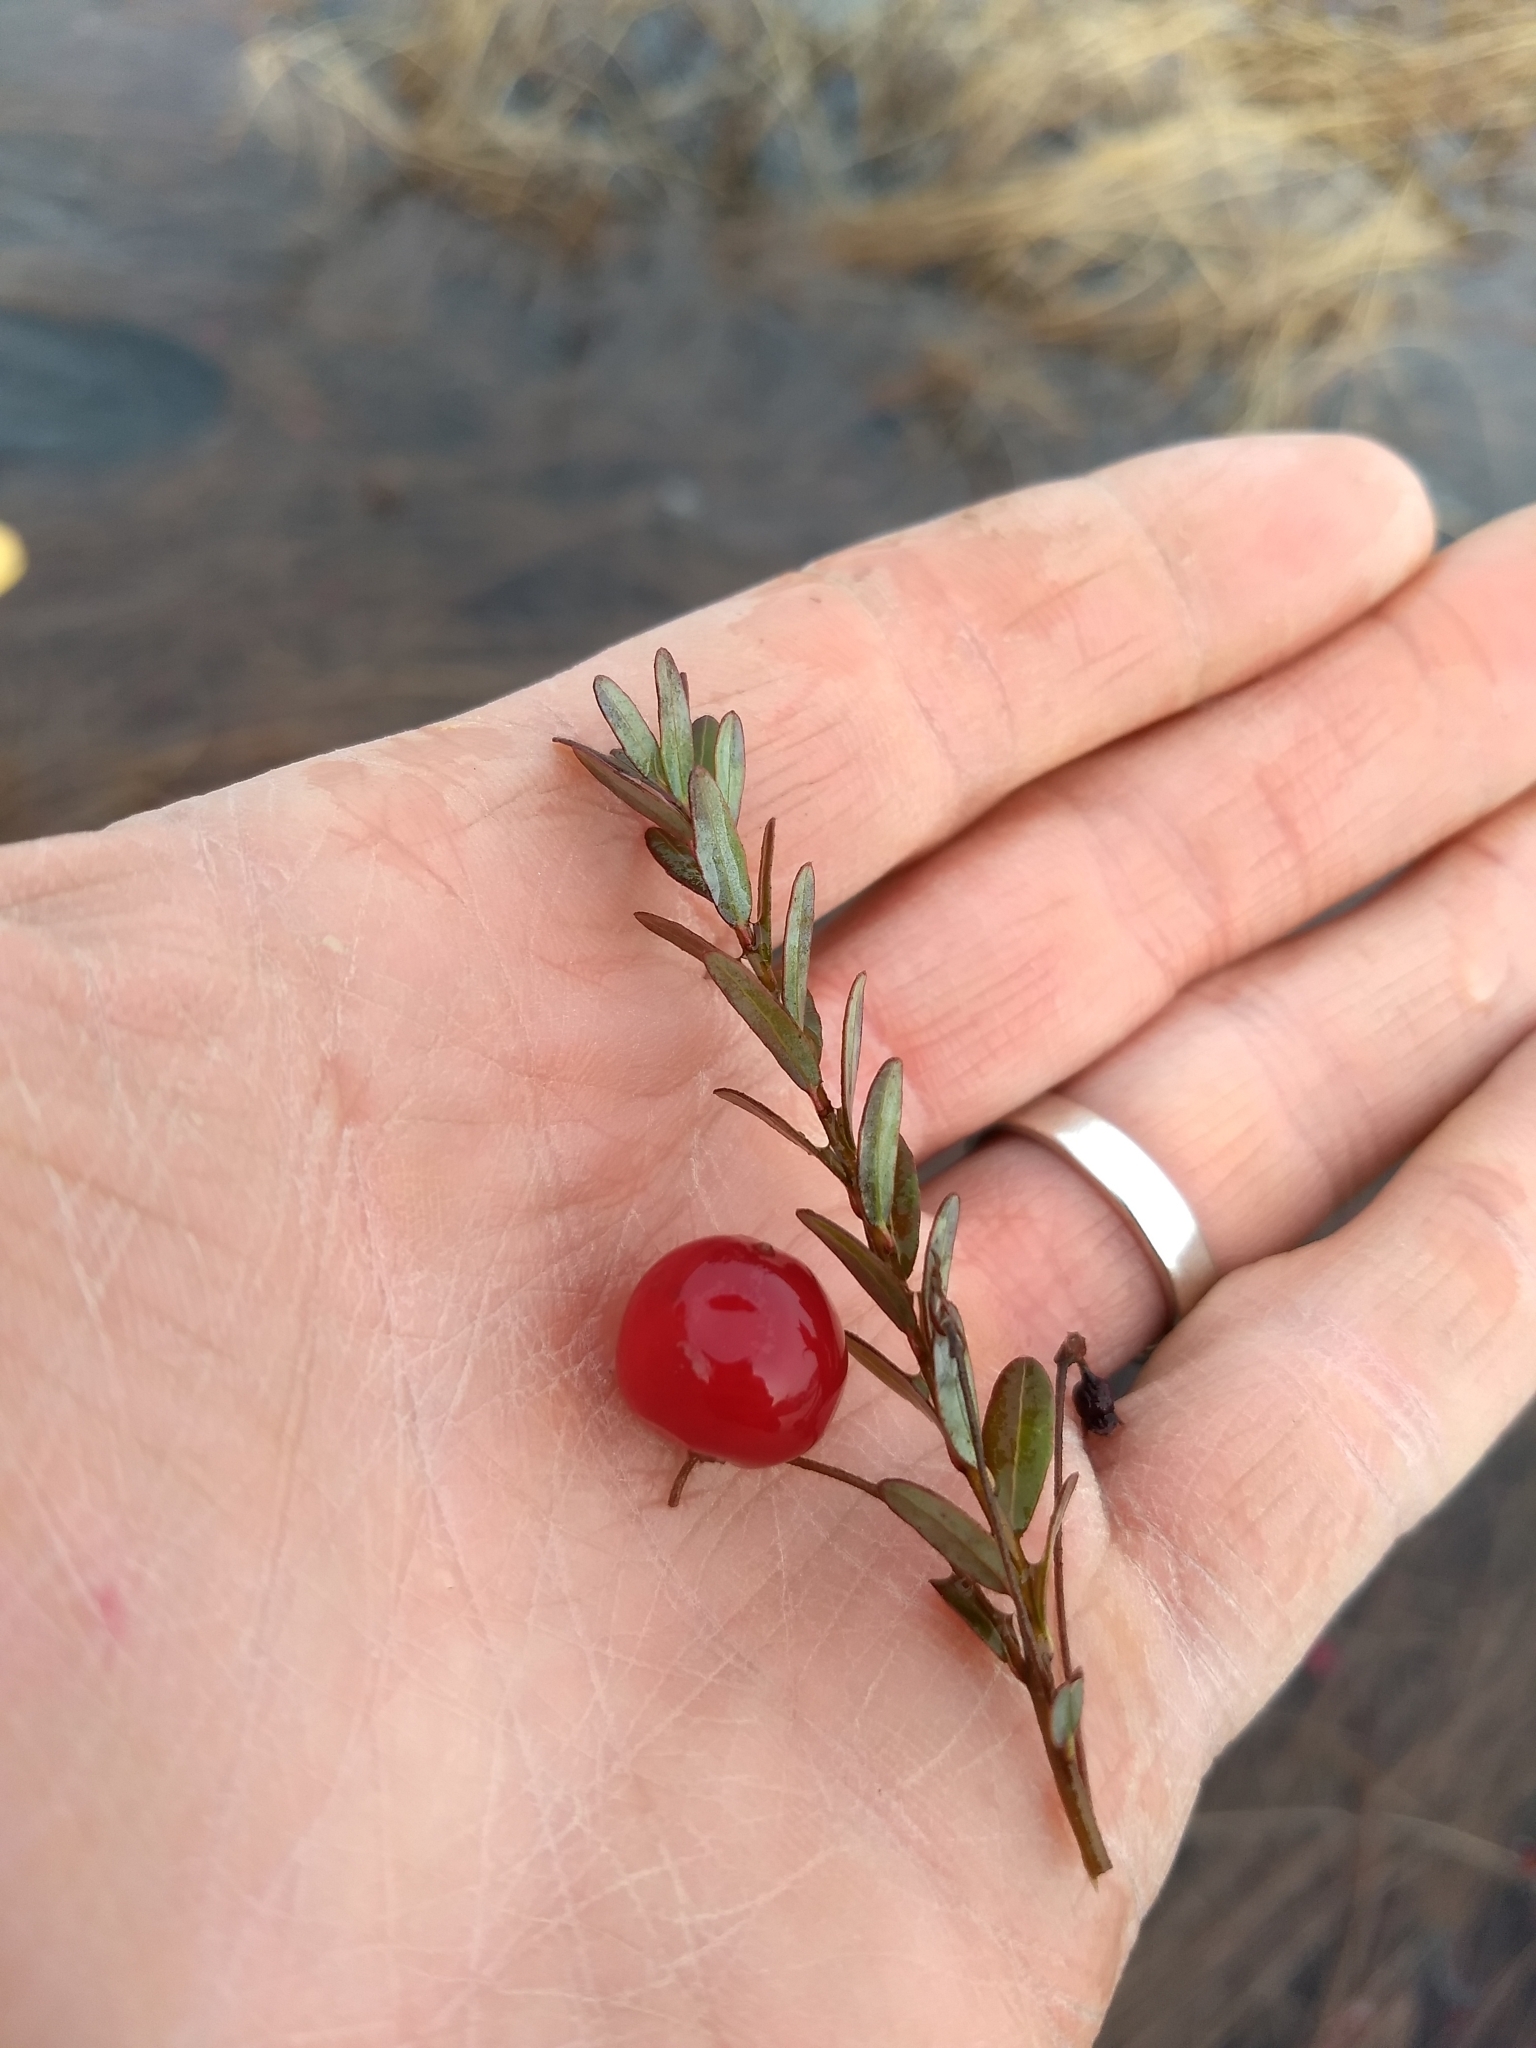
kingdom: Plantae
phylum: Tracheophyta
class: Magnoliopsida
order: Ericales
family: Ericaceae
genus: Vaccinium
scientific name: Vaccinium macrocarpon
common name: American cranberry
